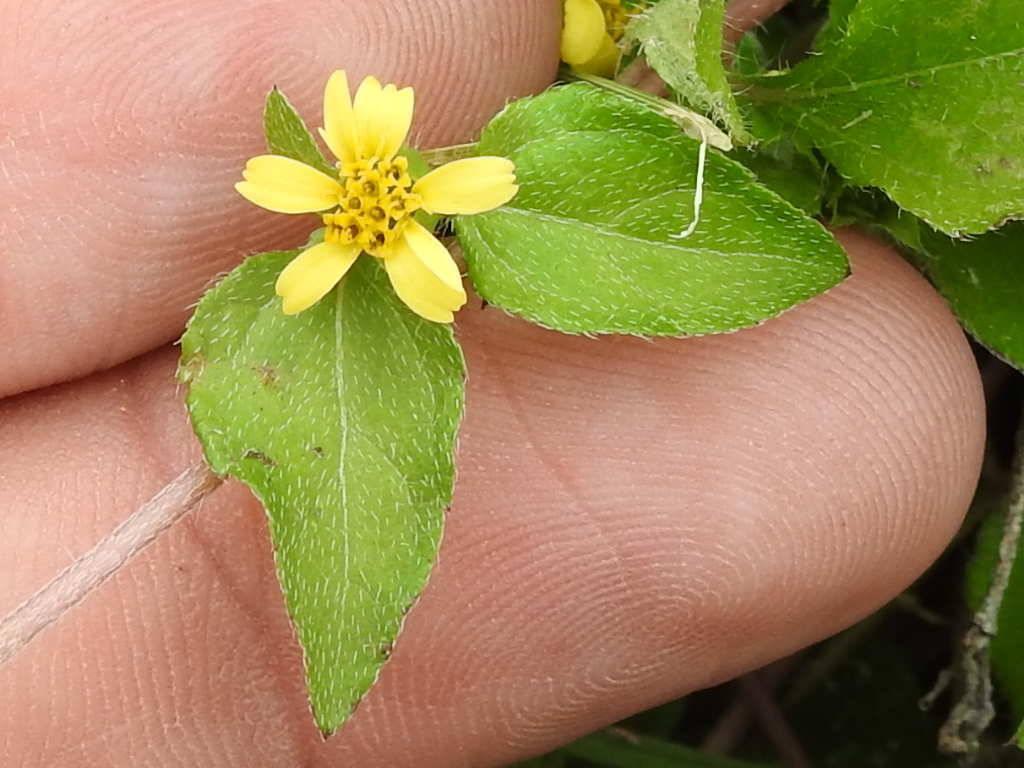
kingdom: Plantae
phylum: Tracheophyta
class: Magnoliopsida
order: Asterales
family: Asteraceae
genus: Calyptocarpus
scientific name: Calyptocarpus vialis
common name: Straggler daisy
